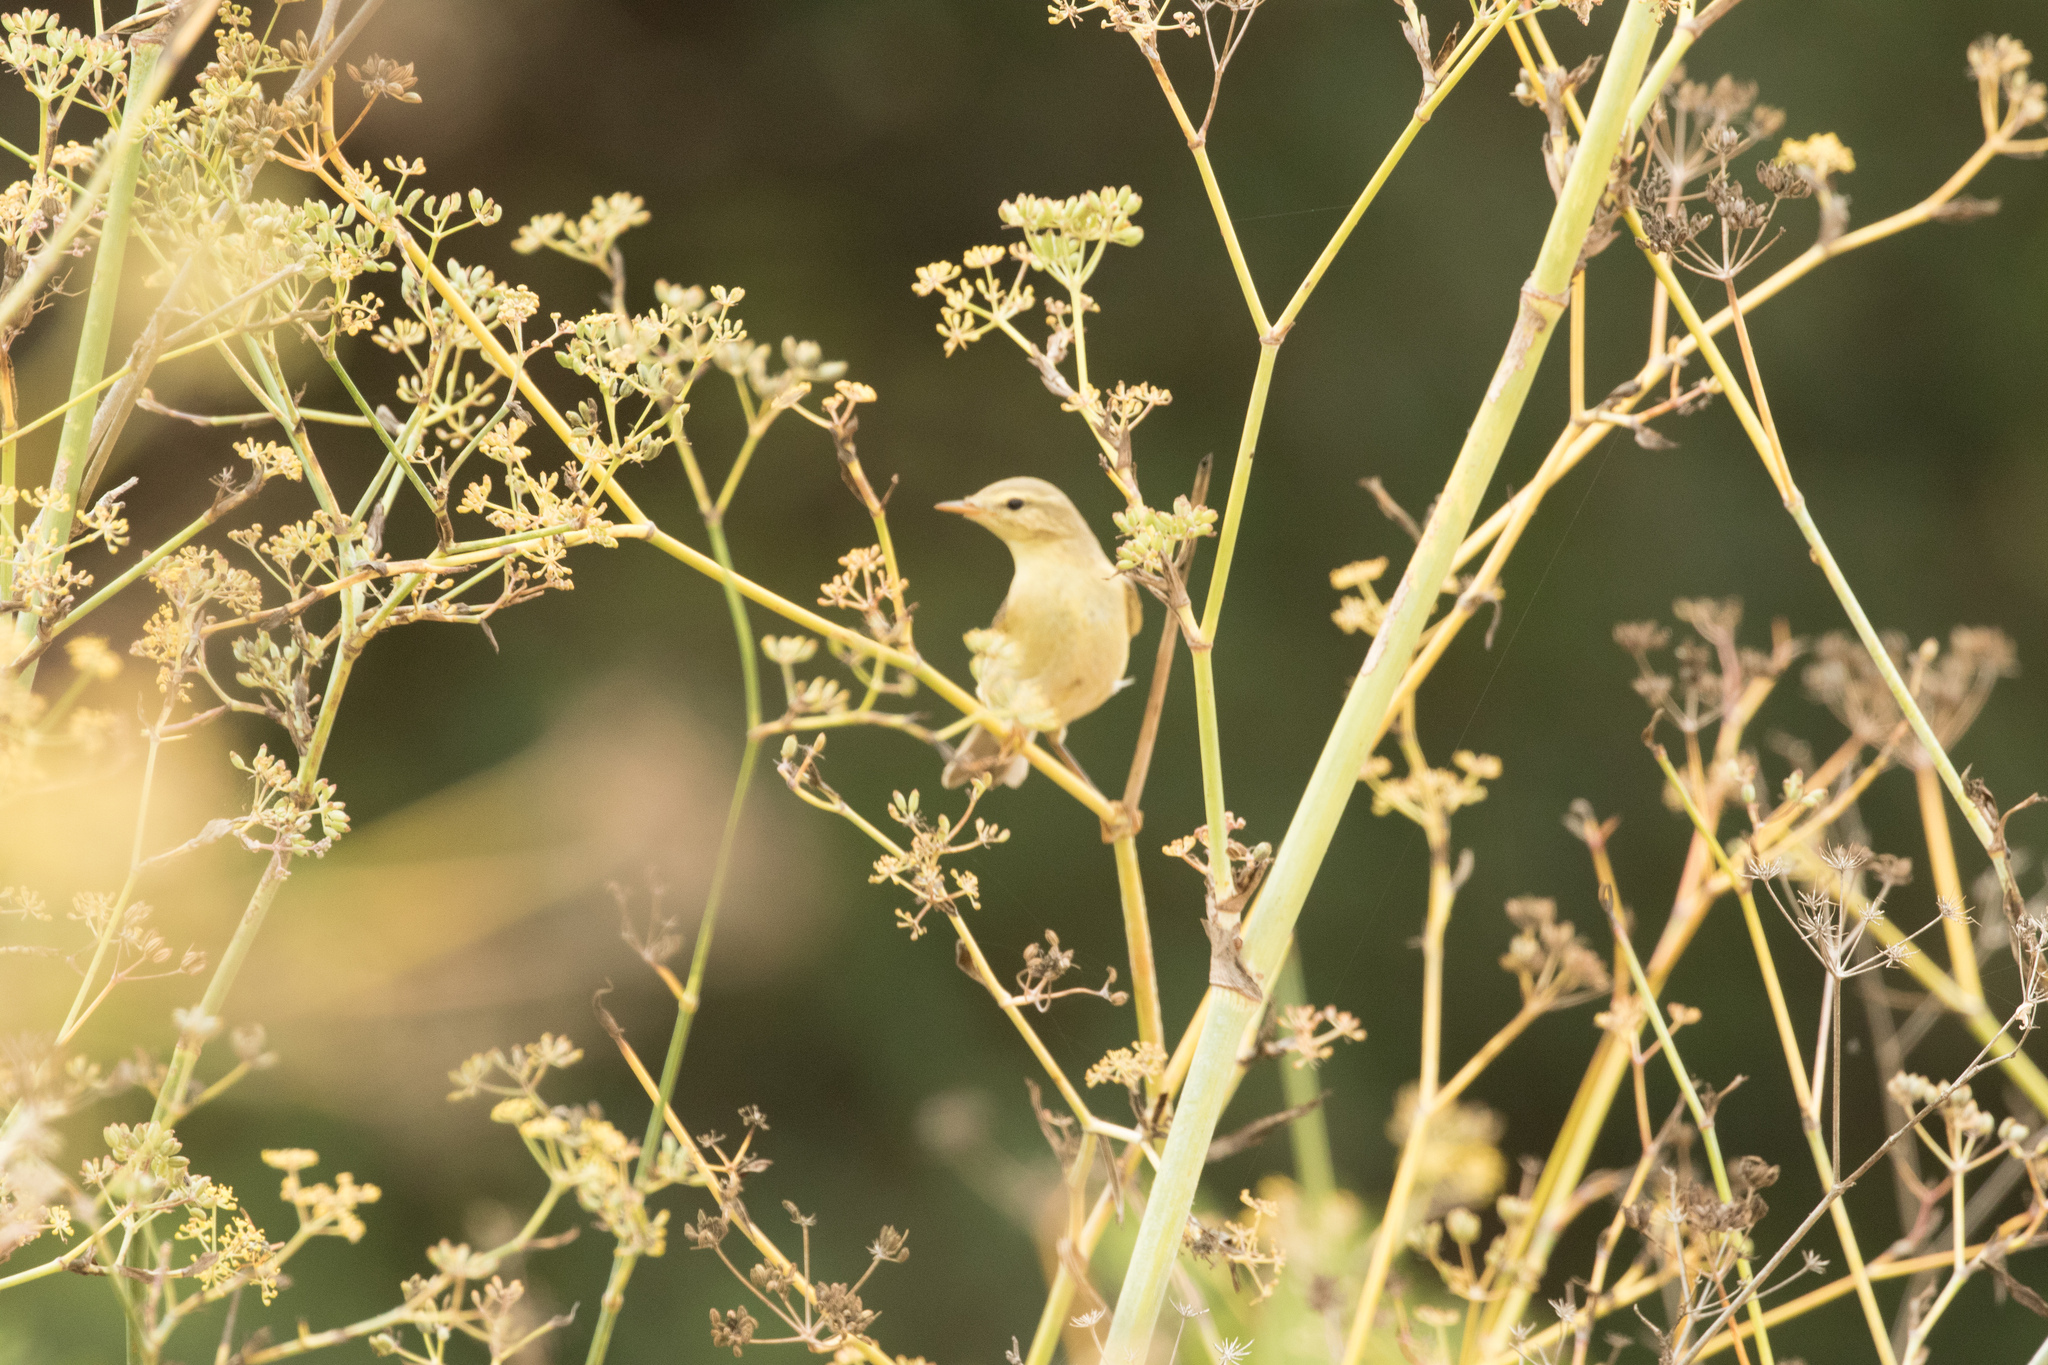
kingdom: Animalia
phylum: Chordata
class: Aves
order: Passeriformes
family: Phylloscopidae
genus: Phylloscopus
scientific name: Phylloscopus trochilus
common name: Willow warbler
